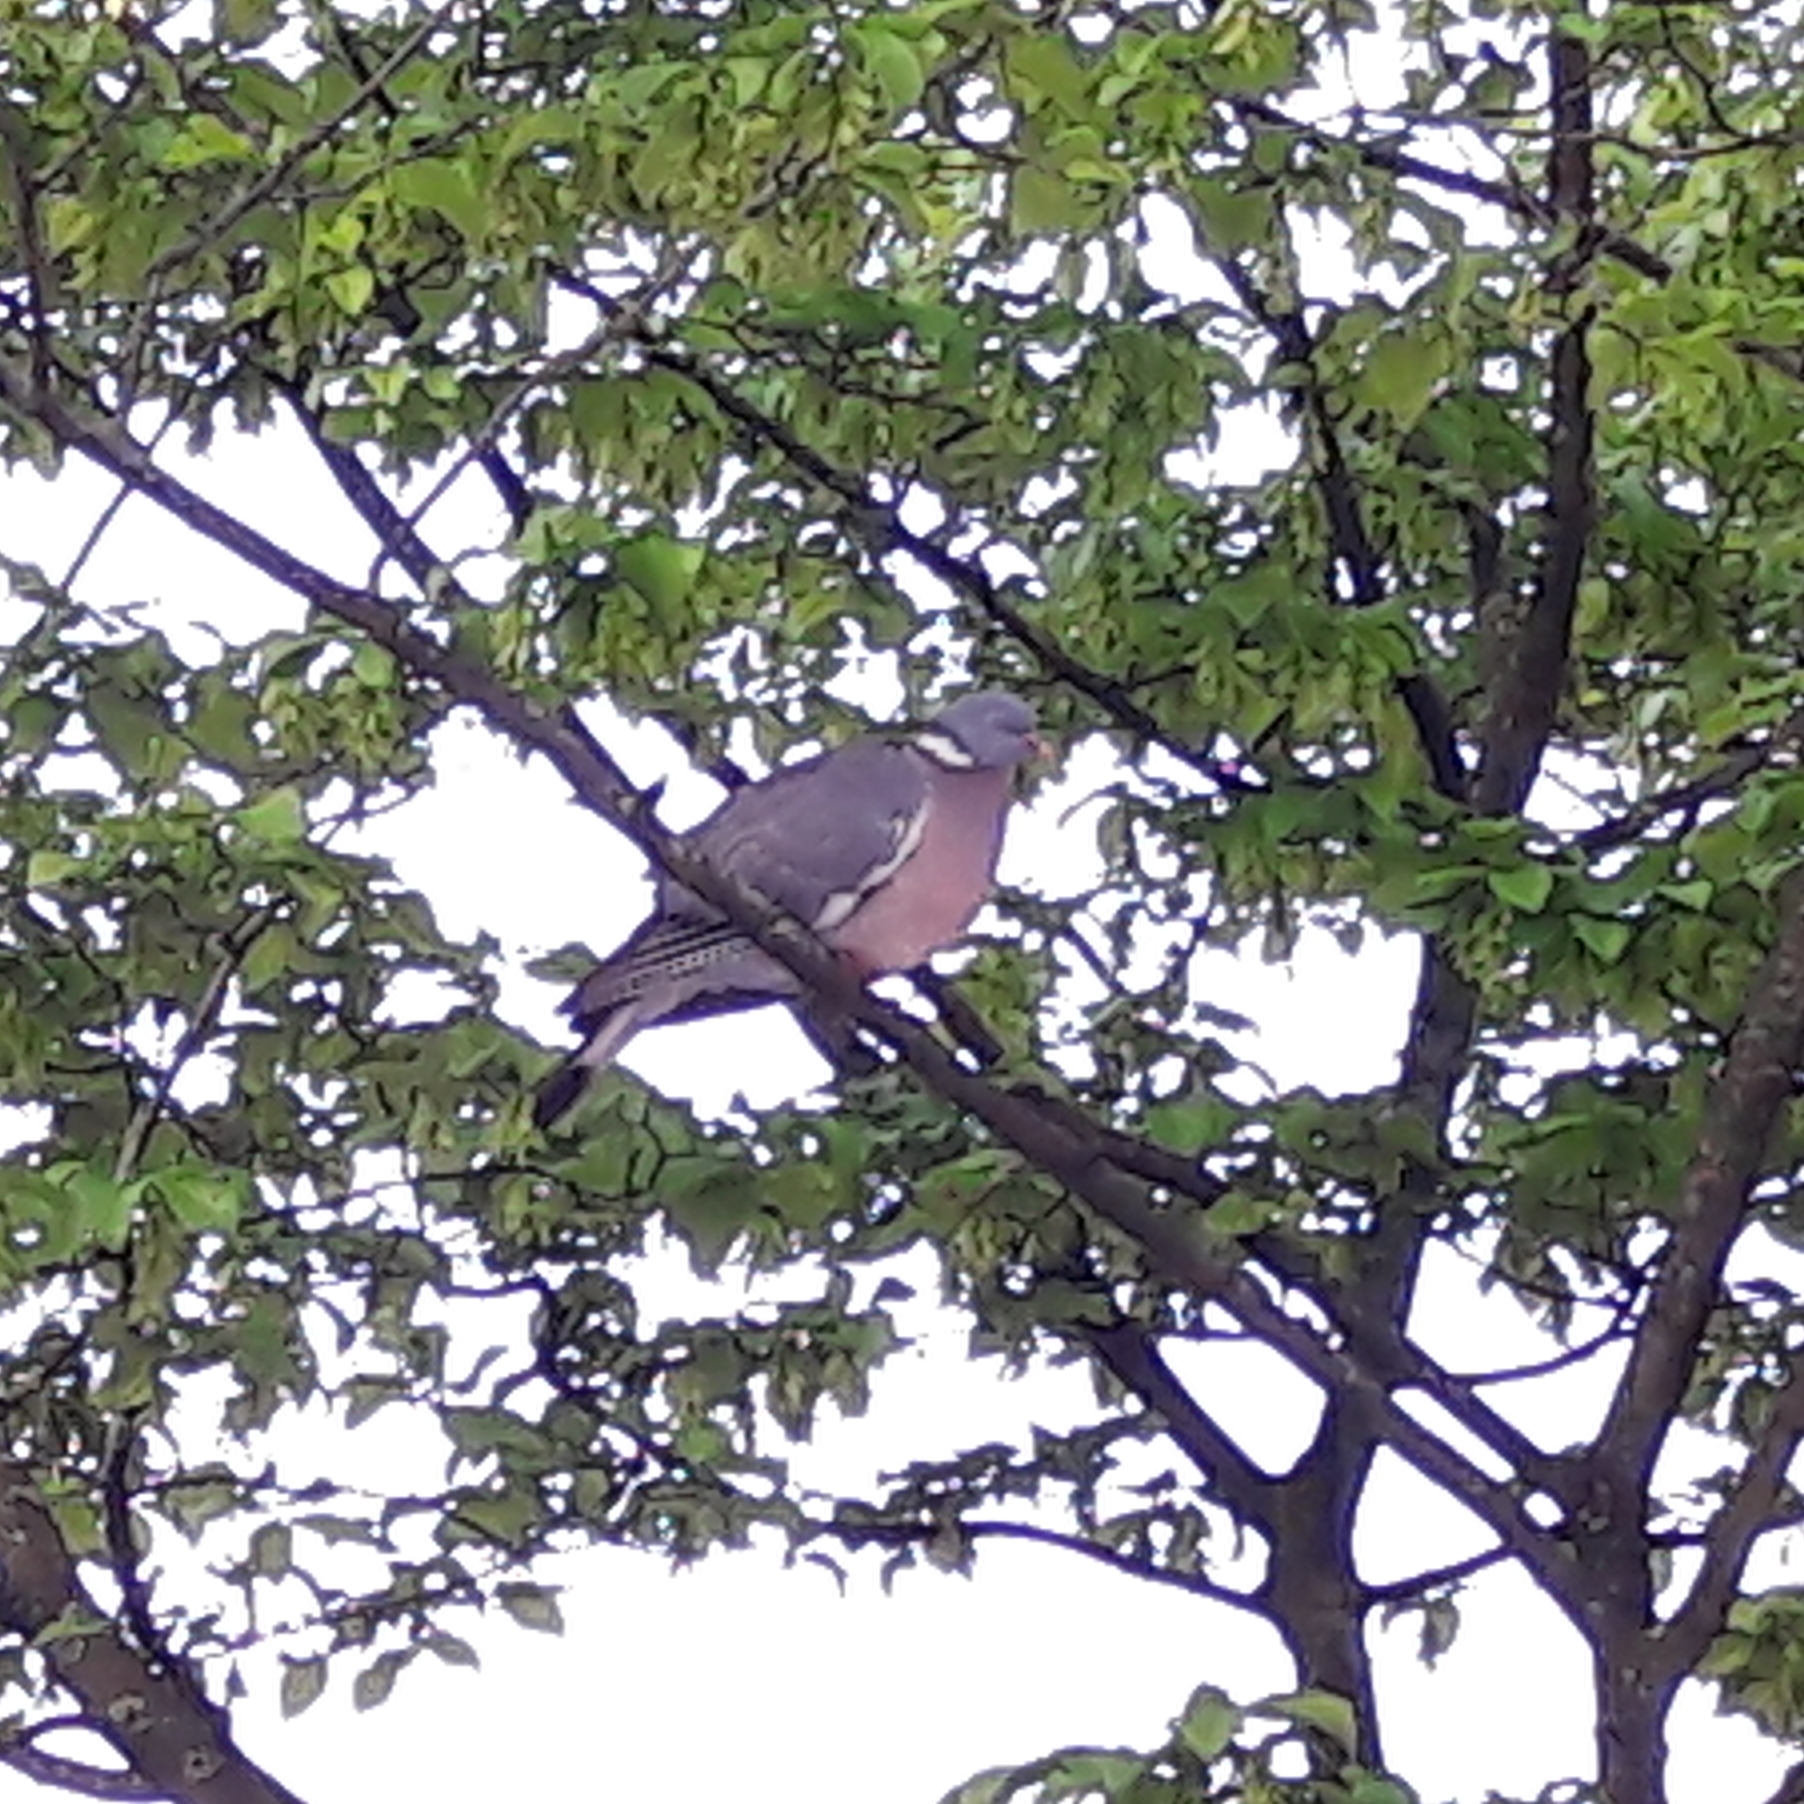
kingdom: Animalia
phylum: Chordata
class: Aves
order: Columbiformes
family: Columbidae
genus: Columba
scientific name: Columba palumbus
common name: Common wood pigeon
